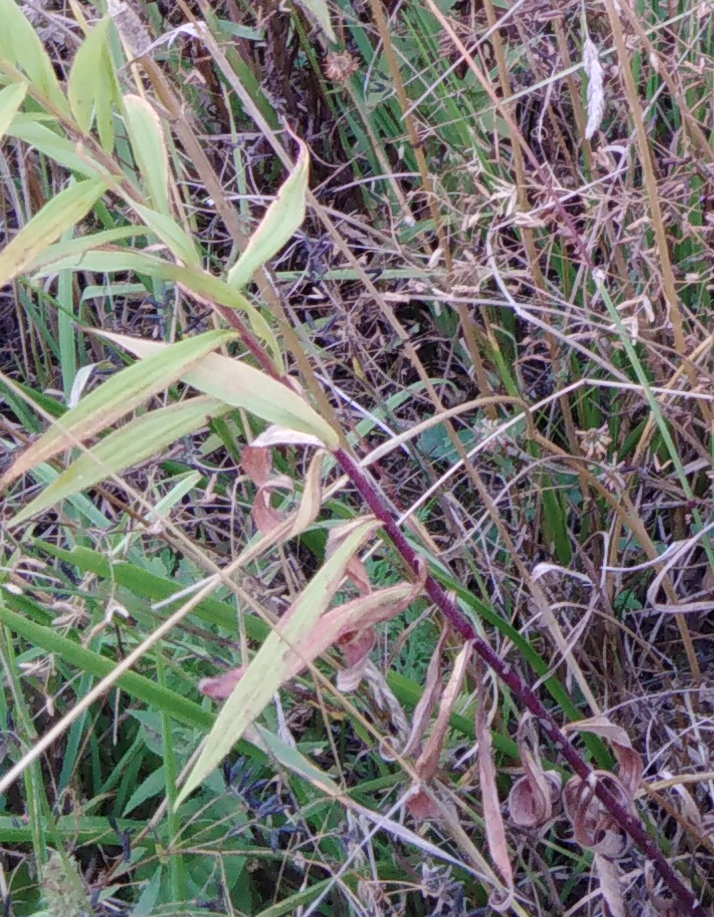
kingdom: Plantae
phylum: Tracheophyta
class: Magnoliopsida
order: Asterales
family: Asteraceae
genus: Solidago
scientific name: Solidago canadensis
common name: Canada goldenrod
